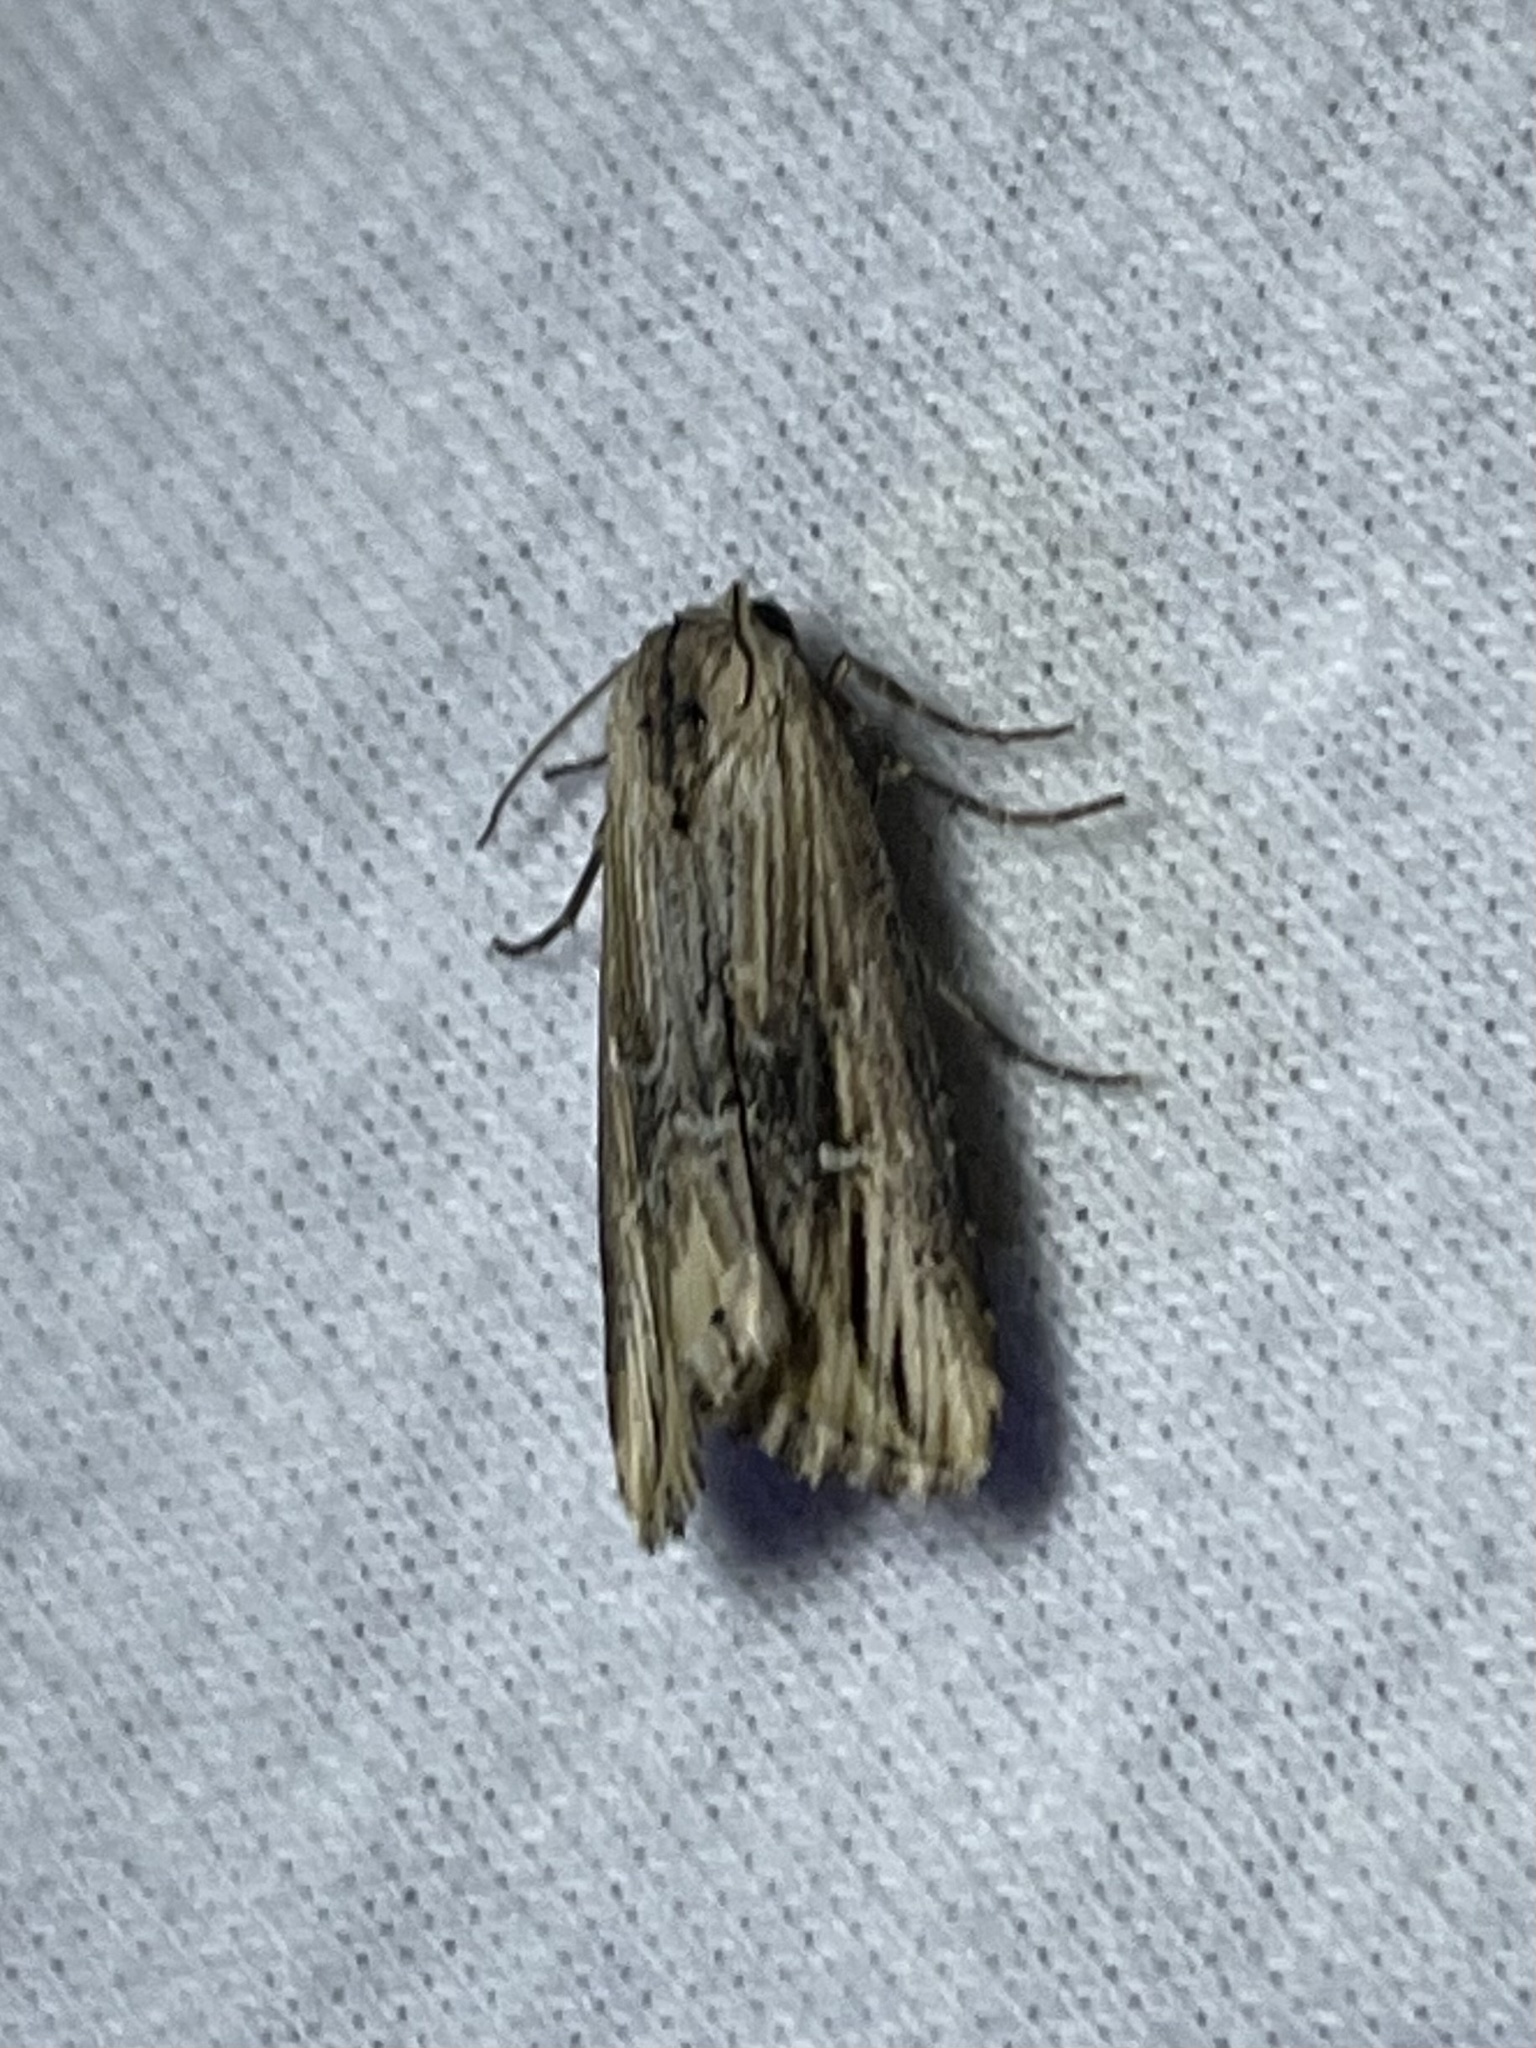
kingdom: Animalia
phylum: Arthropoda
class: Insecta
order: Lepidoptera
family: Noctuidae
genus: Crambodes
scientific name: Crambodes talidiformis
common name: Verbena moth
